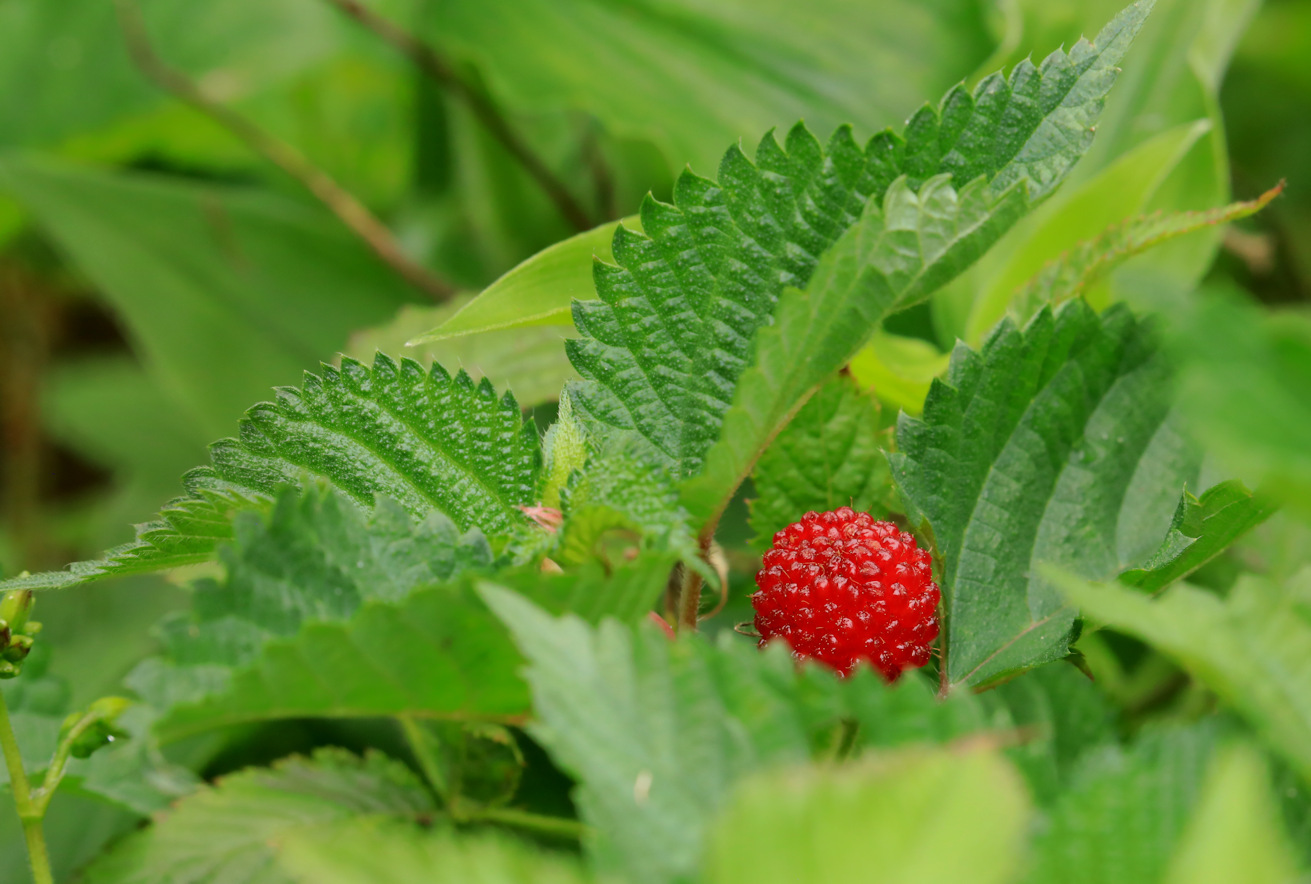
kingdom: Plantae
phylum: Tracheophyta
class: Magnoliopsida
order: Rosales
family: Rosaceae
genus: Rubus
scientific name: Rubus rosifolius
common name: Roseleaf raspberry
